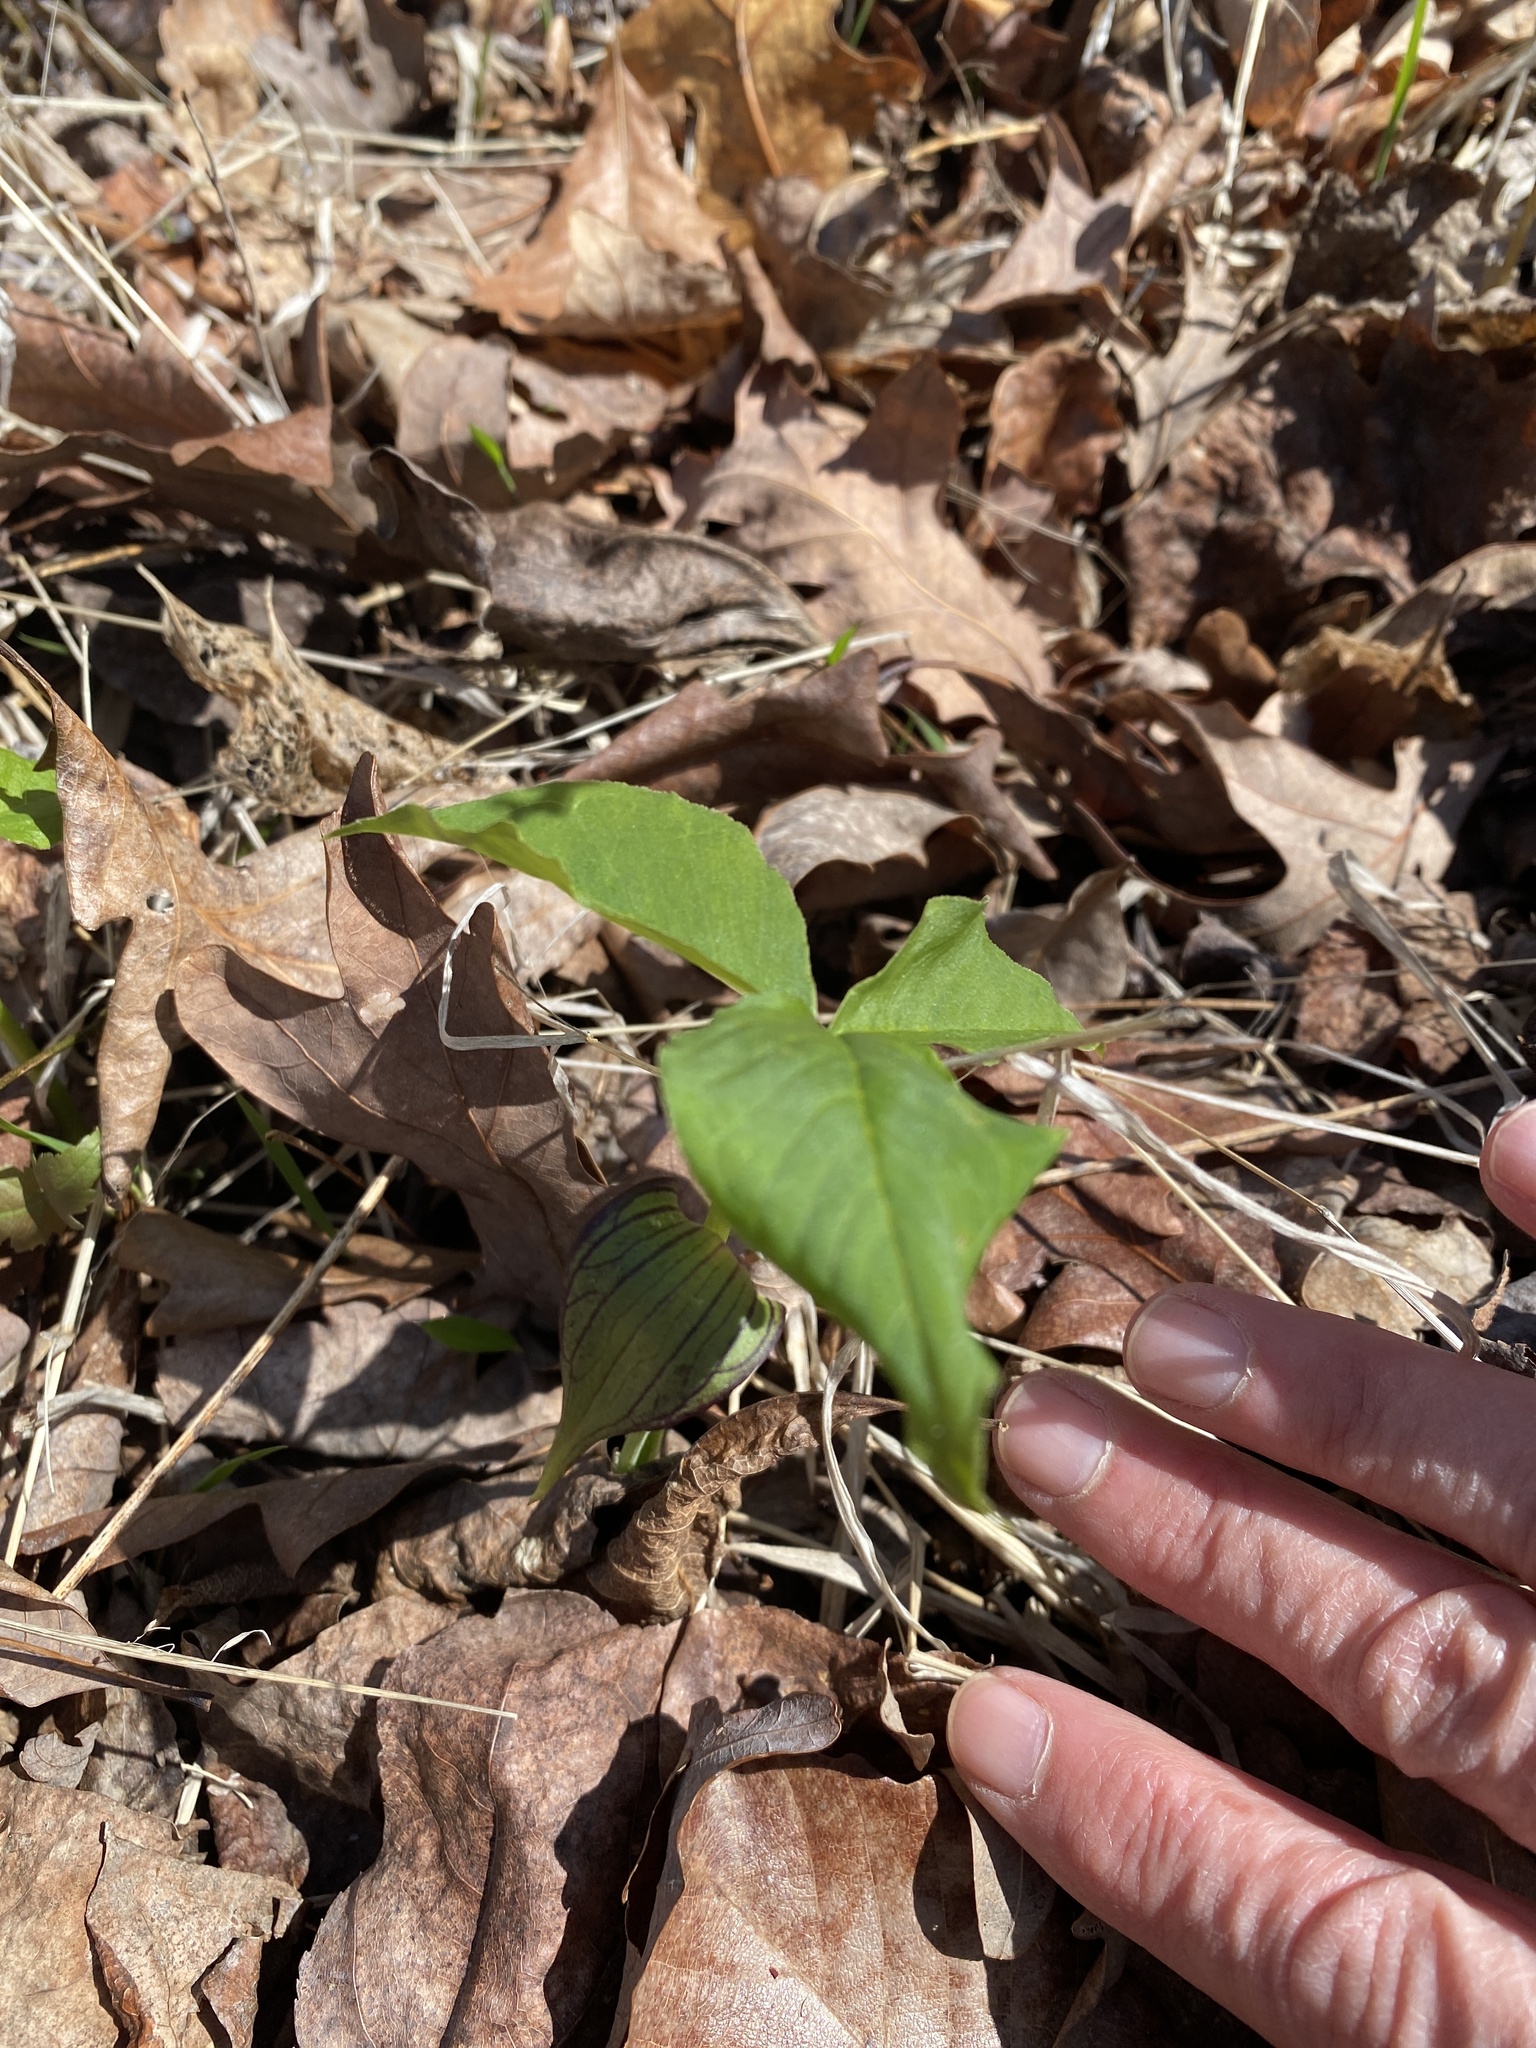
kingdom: Plantae
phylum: Tracheophyta
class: Liliopsida
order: Alismatales
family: Araceae
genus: Arisaema
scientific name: Arisaema pusillum
